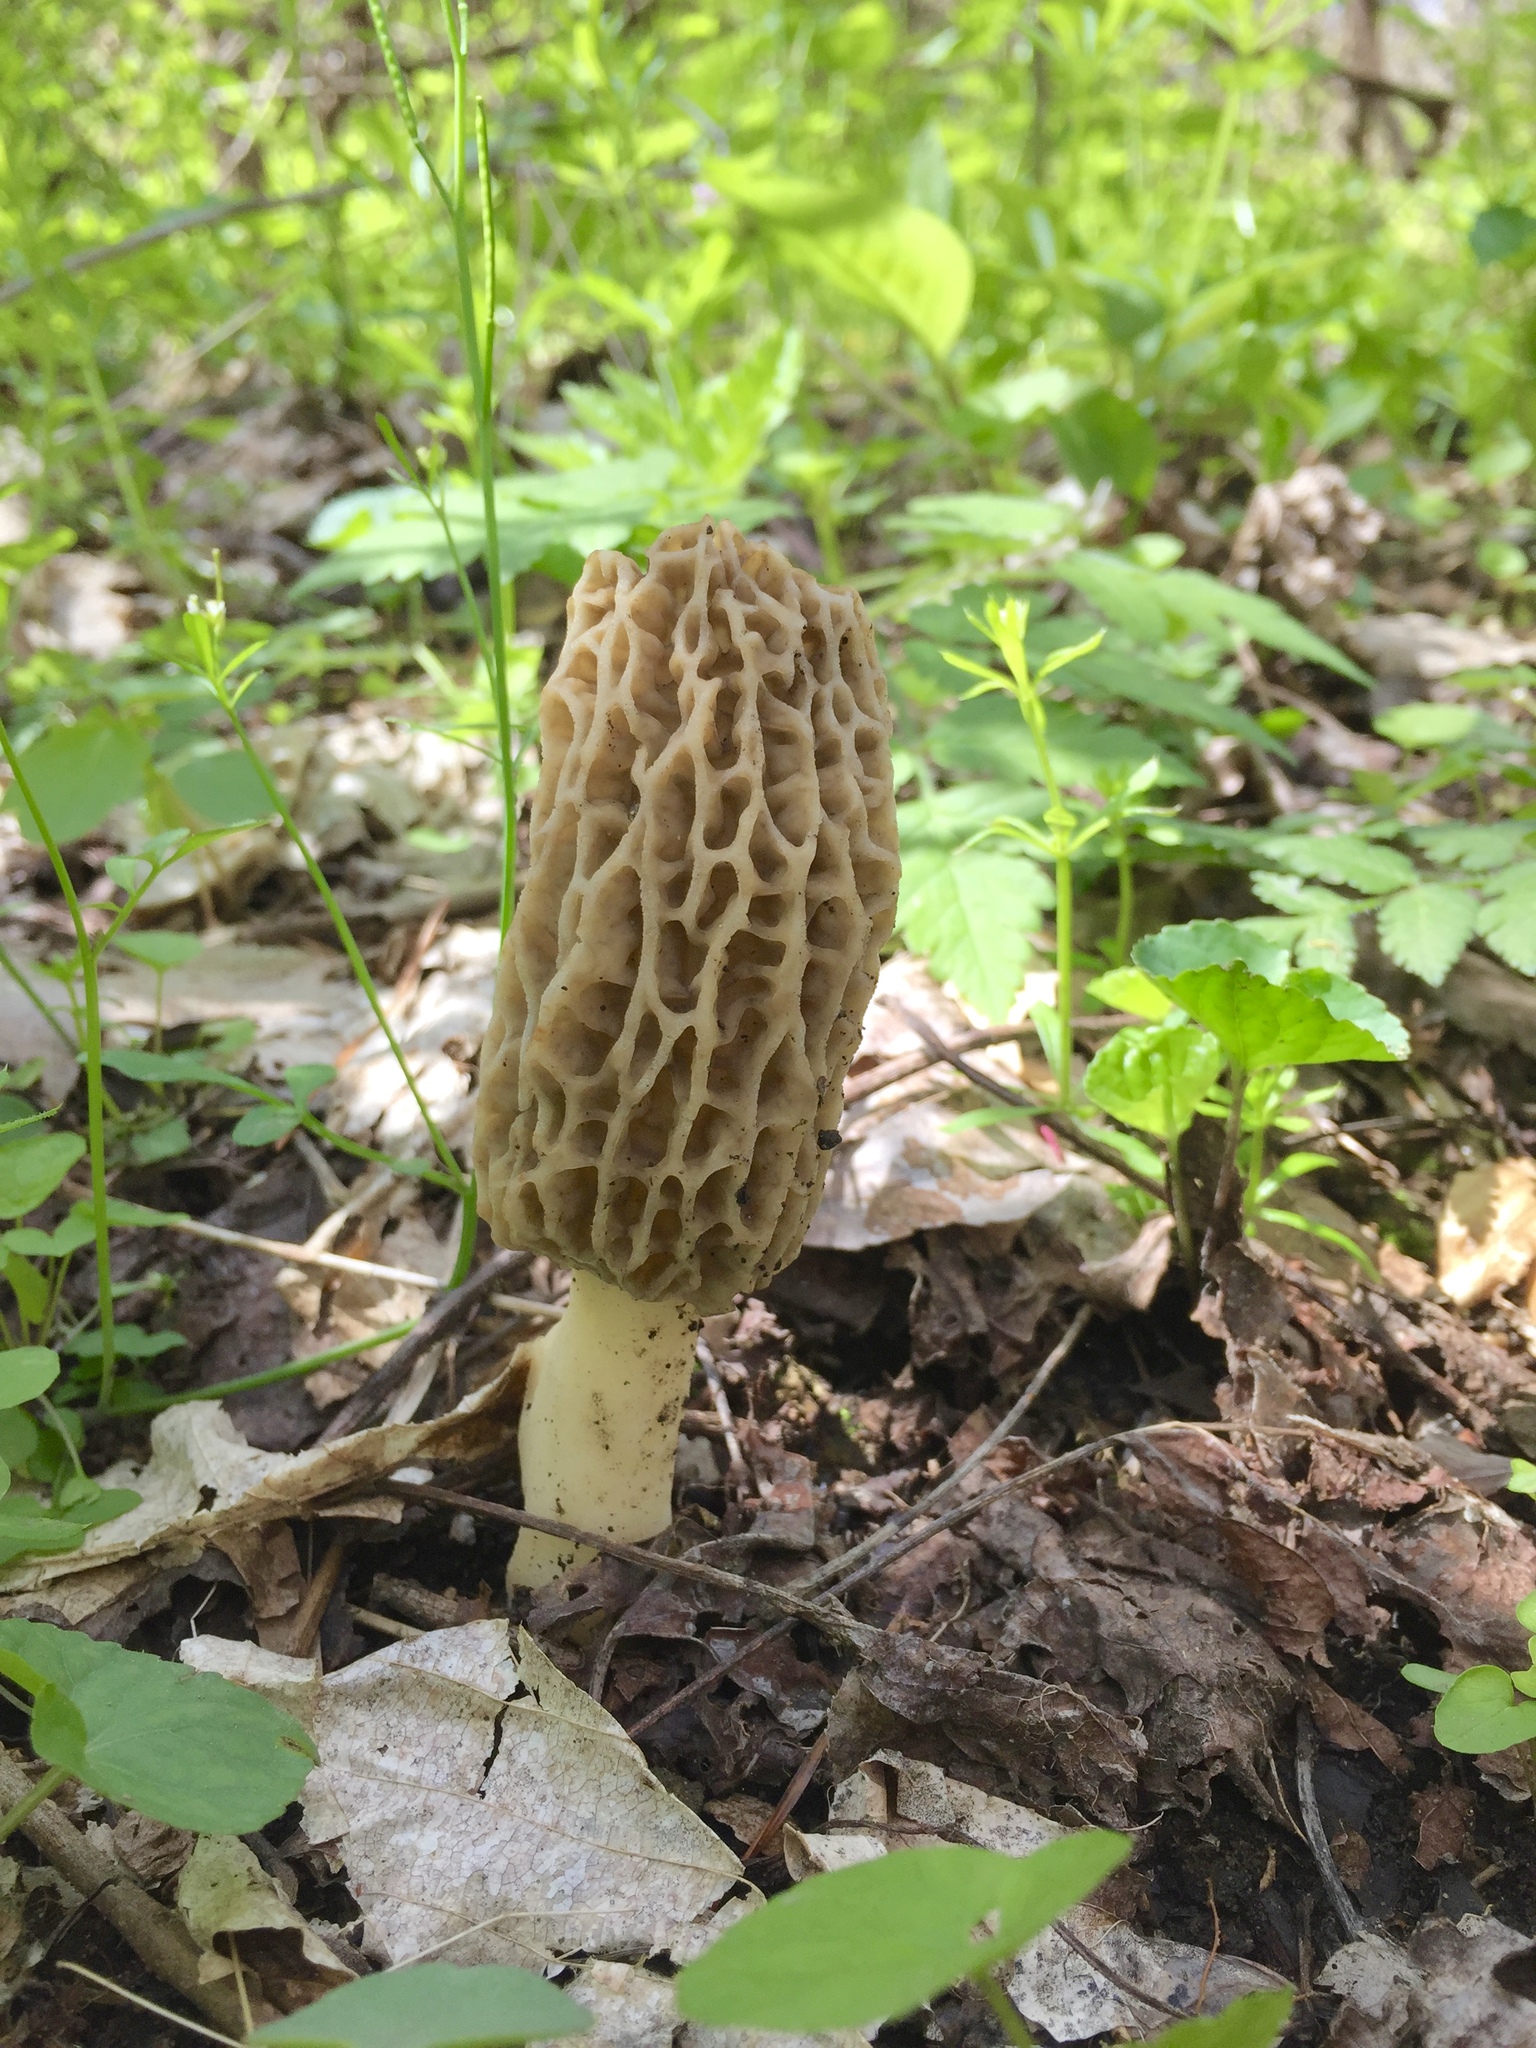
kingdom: Fungi
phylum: Ascomycota
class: Pezizomycetes
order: Pezizales
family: Morchellaceae
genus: Morchella
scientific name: Morchella americana
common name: White morel
